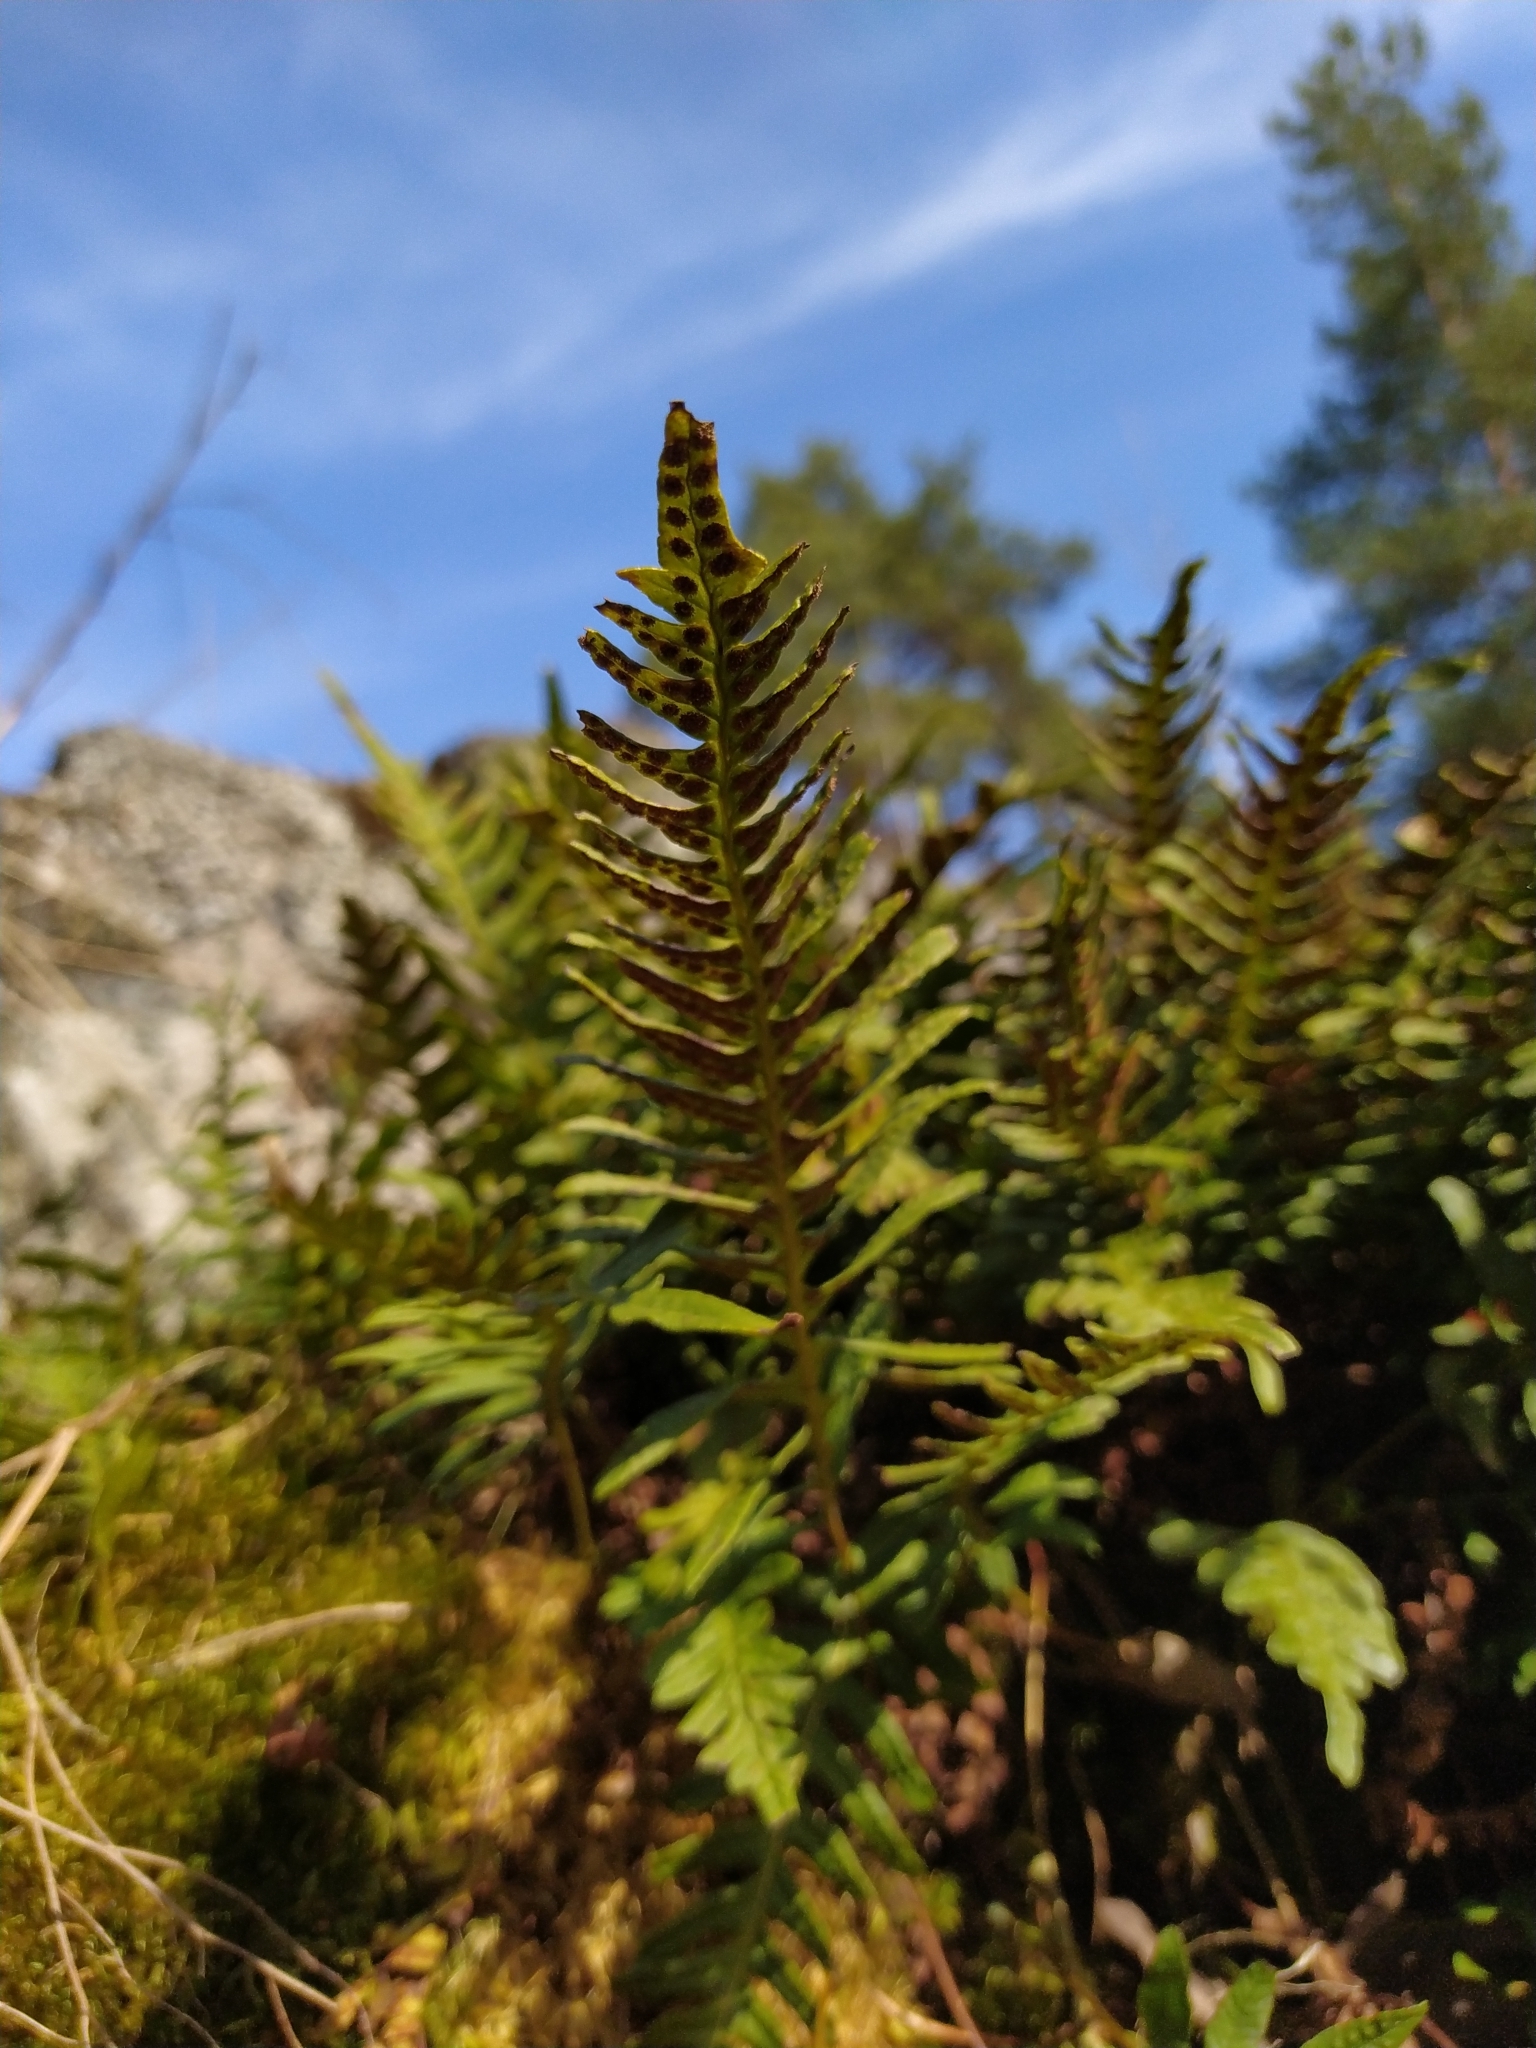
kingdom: Plantae
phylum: Tracheophyta
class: Polypodiopsida
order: Polypodiales
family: Polypodiaceae
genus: Polypodium
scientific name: Polypodium vulgare
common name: Common polypody
